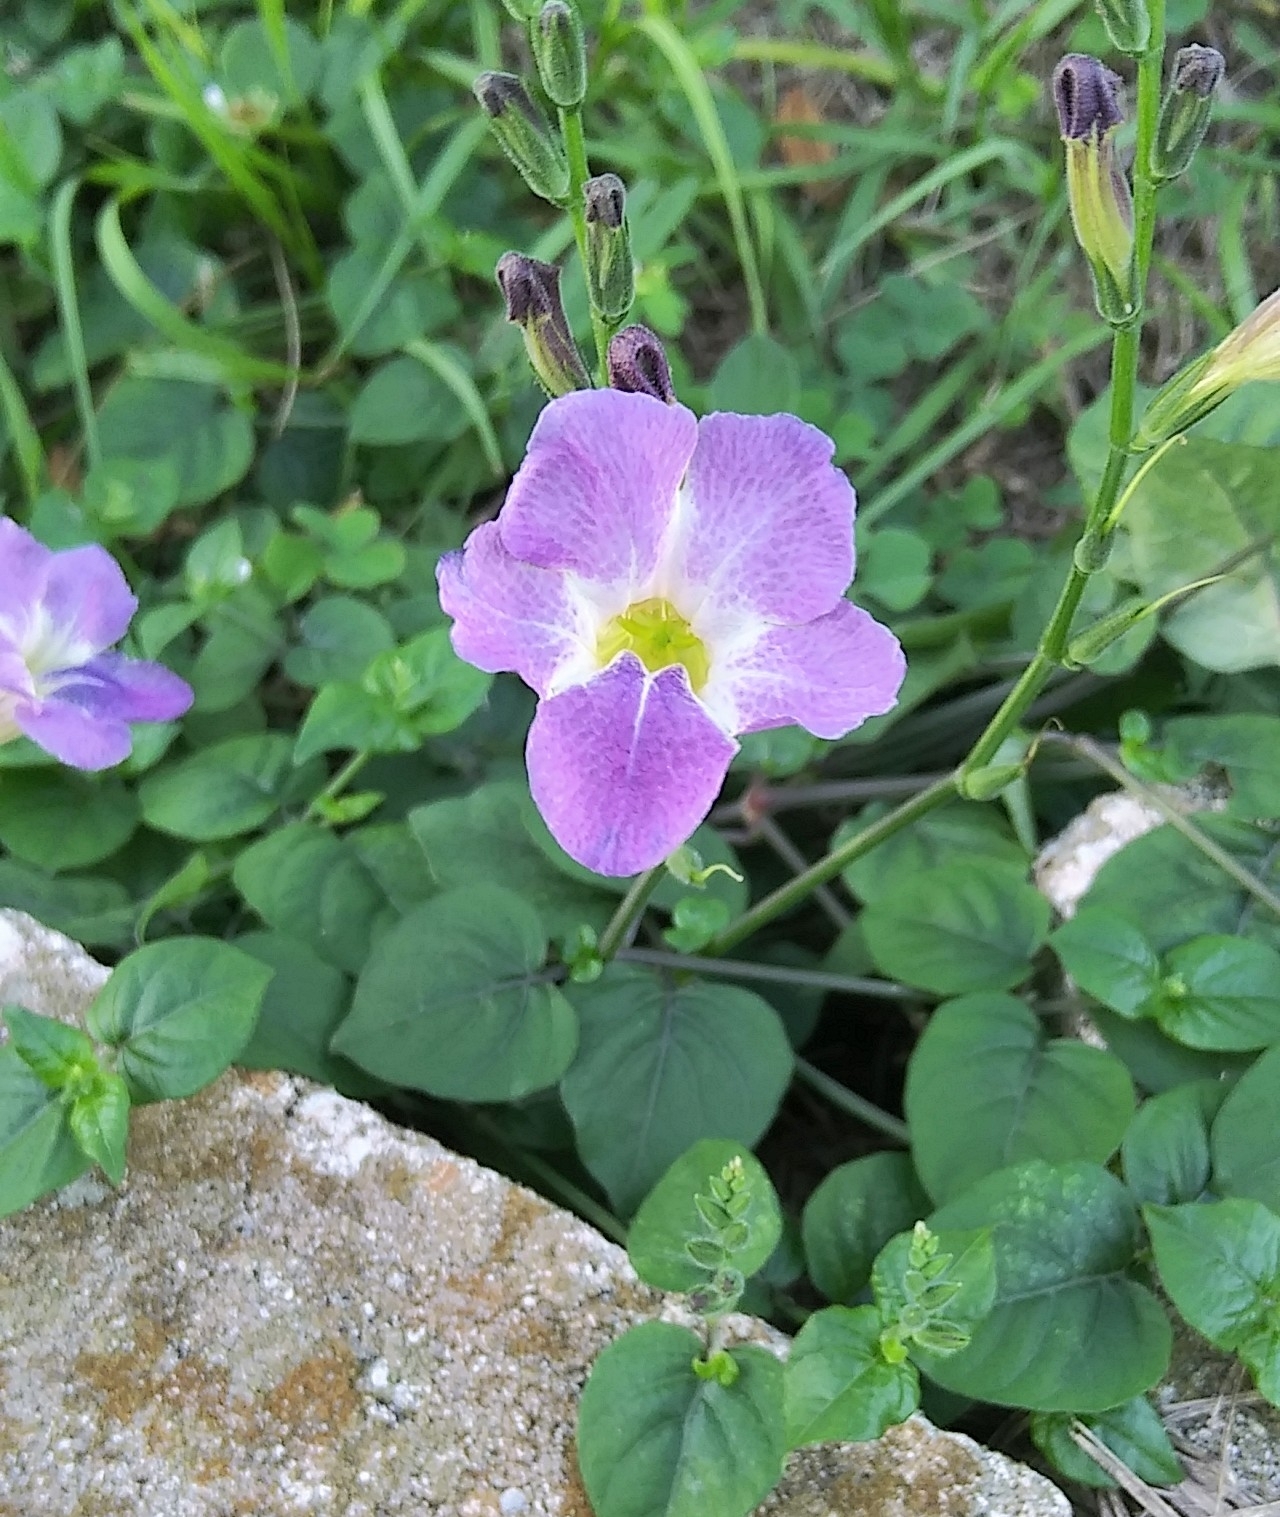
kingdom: Plantae
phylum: Tracheophyta
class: Magnoliopsida
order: Lamiales
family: Acanthaceae
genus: Asystasia
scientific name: Asystasia gangetica
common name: Chinese violet
